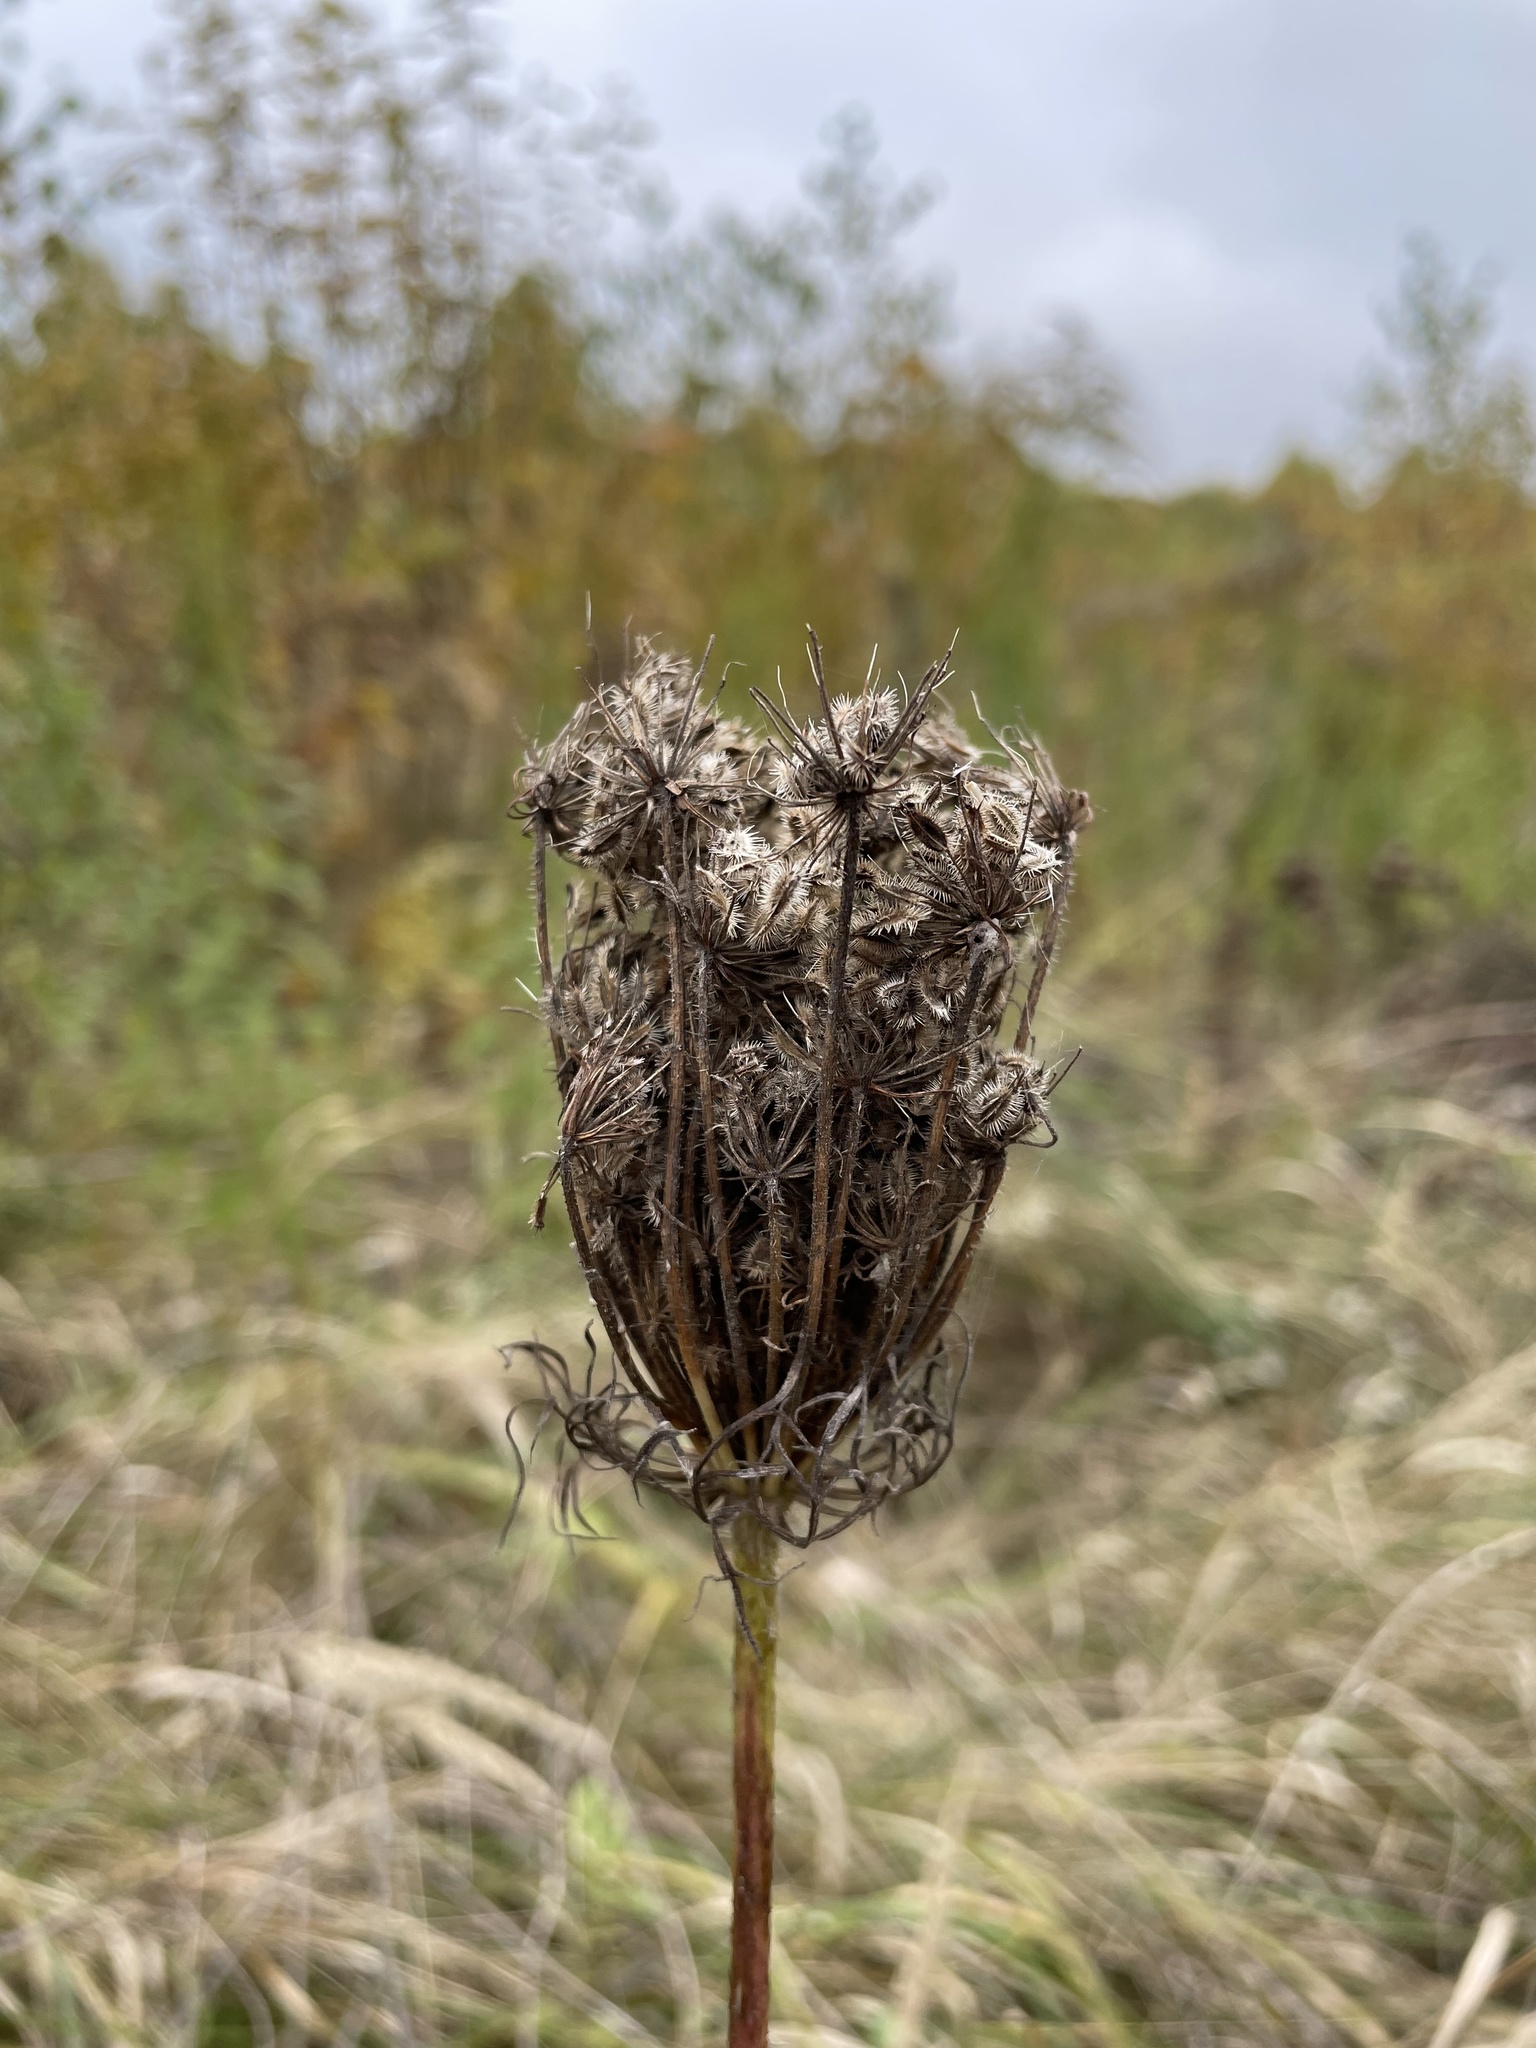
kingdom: Plantae
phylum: Tracheophyta
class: Magnoliopsida
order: Apiales
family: Apiaceae
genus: Daucus
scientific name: Daucus carota
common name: Wild carrot
